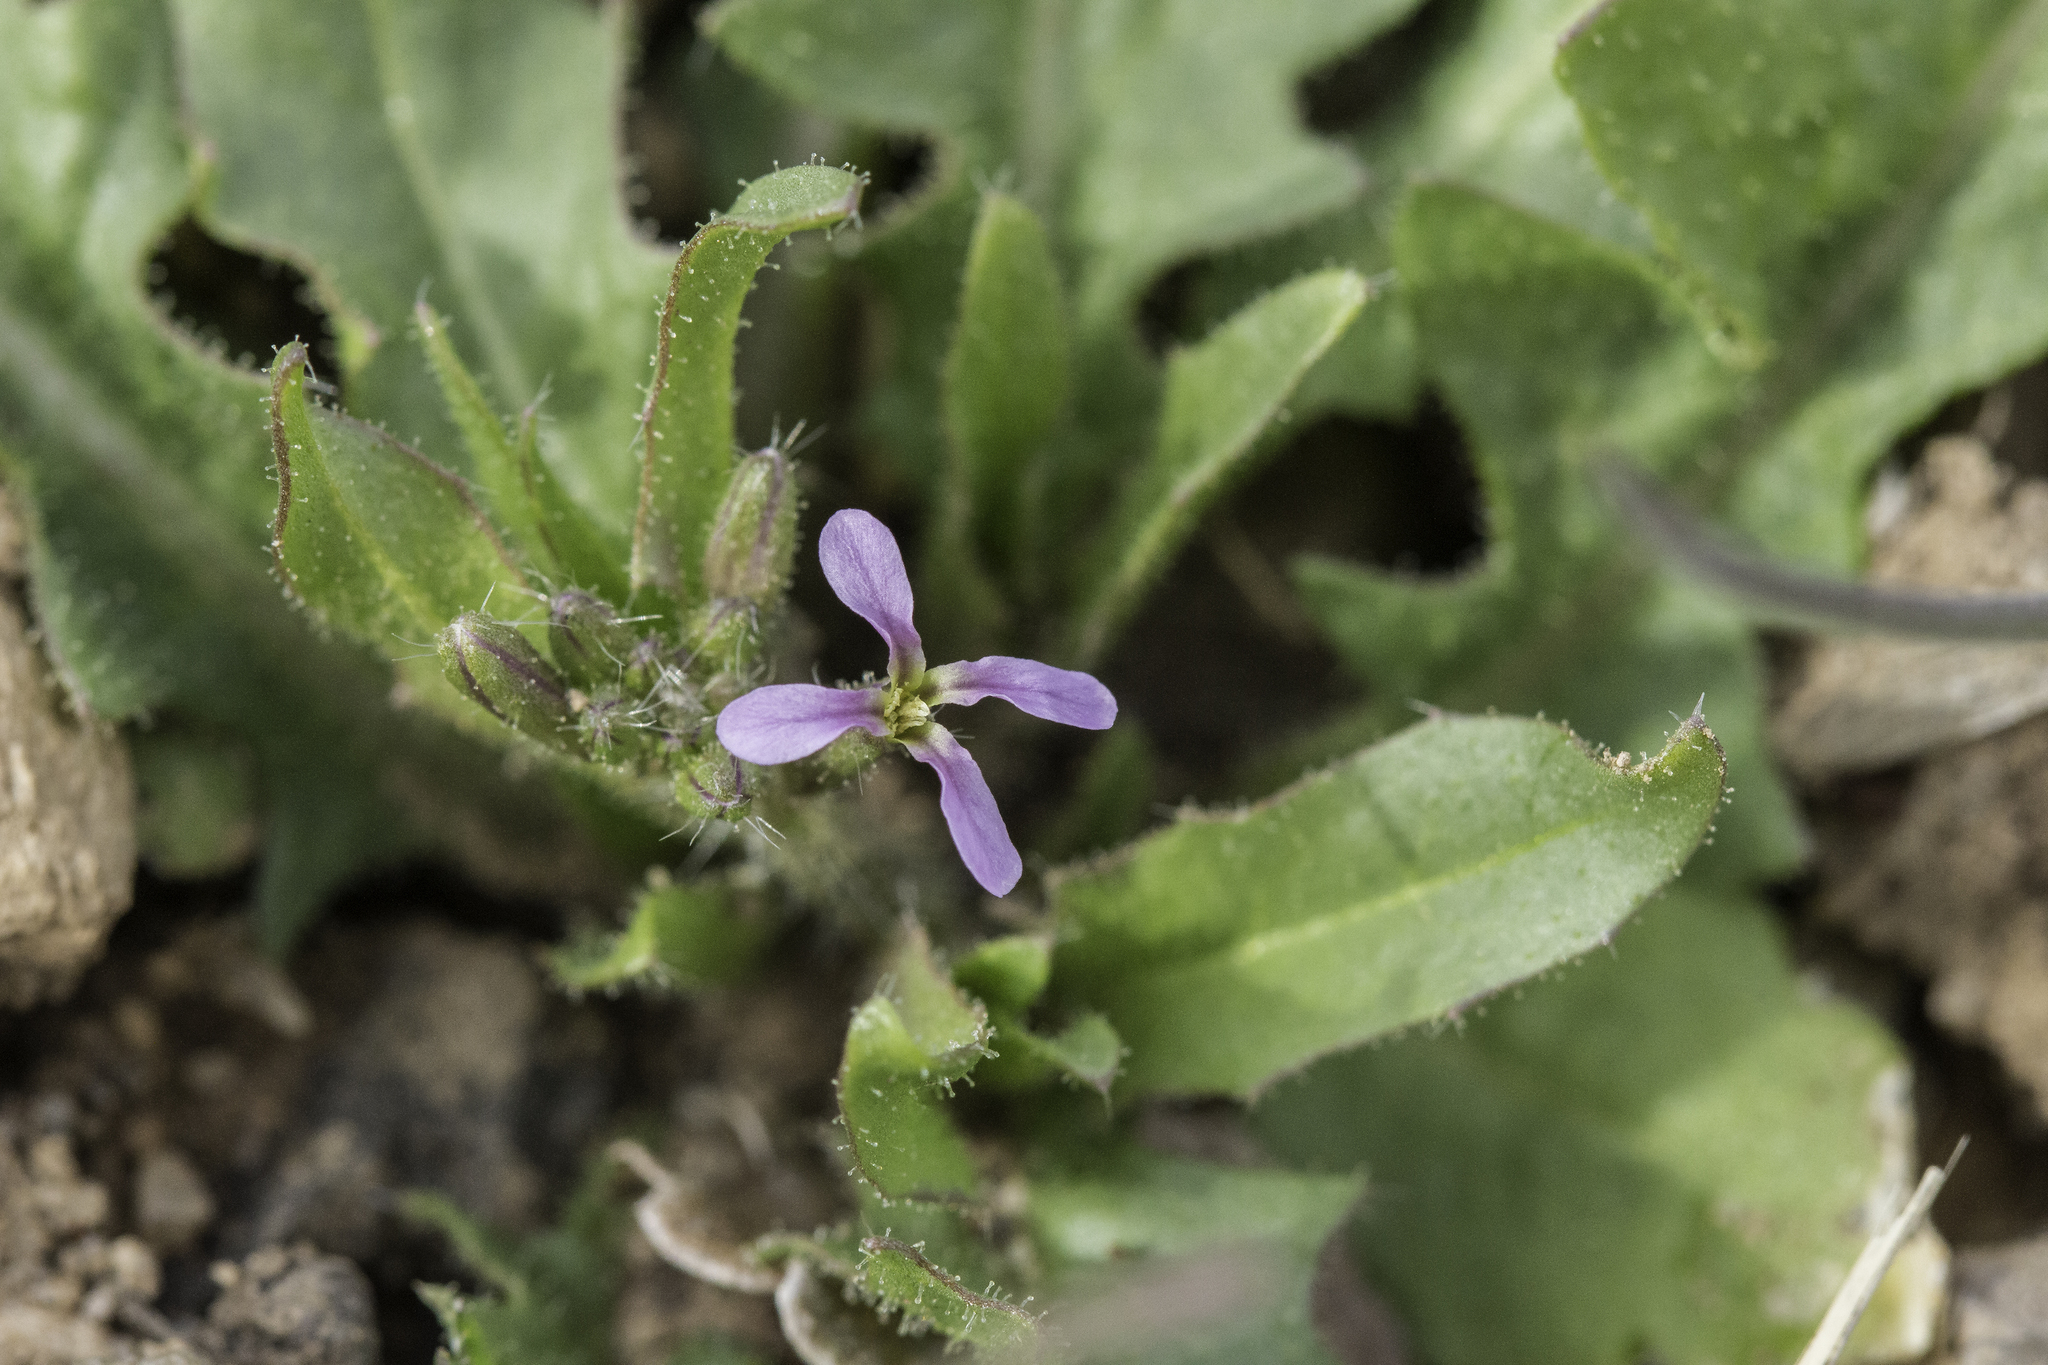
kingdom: Plantae
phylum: Tracheophyta
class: Magnoliopsida
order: Brassicales
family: Brassicaceae
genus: Chorispora
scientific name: Chorispora tenella
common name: Crossflower
